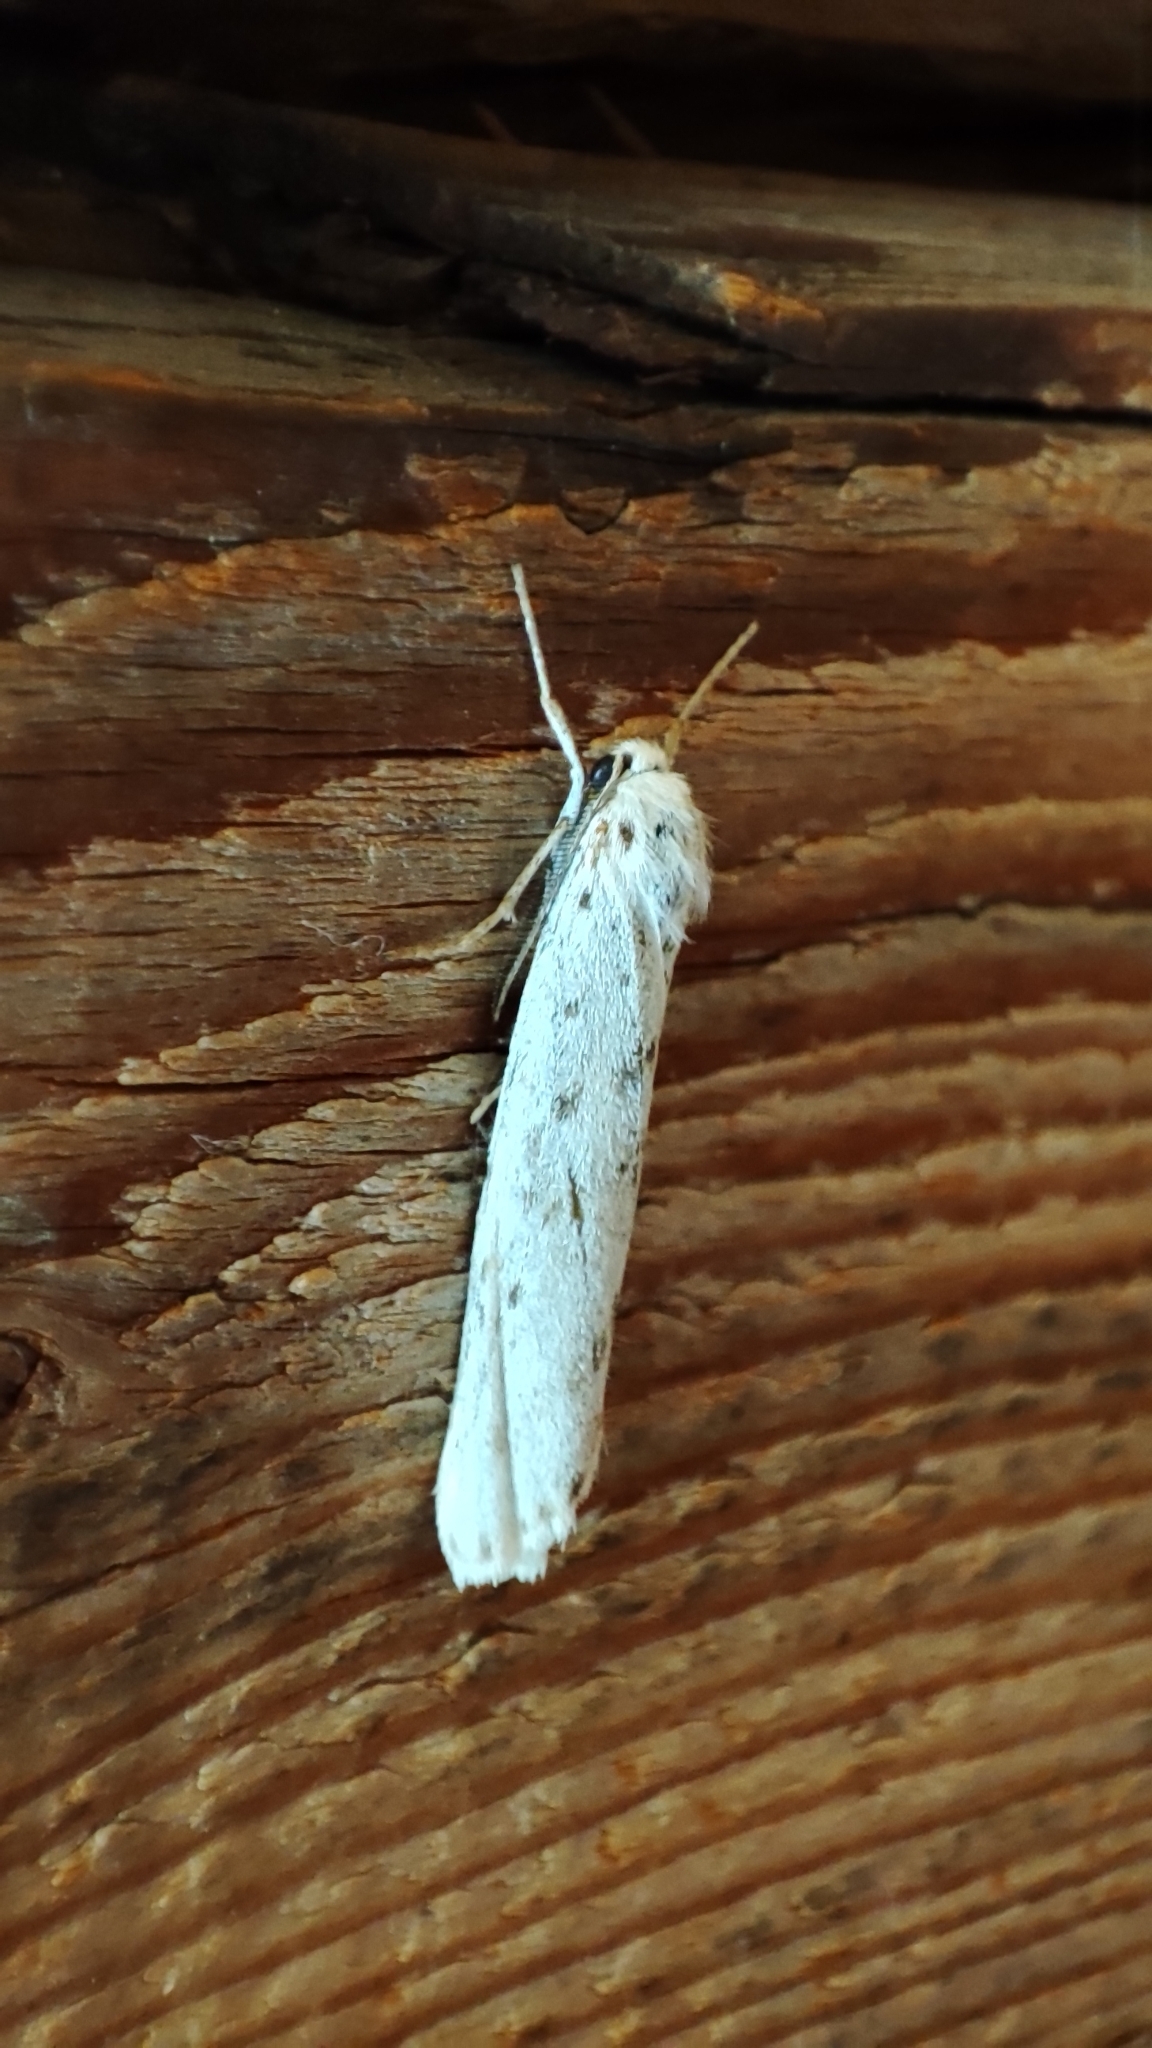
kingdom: Animalia
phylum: Arthropoda
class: Insecta
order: Lepidoptera
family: Erebidae
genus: Coscinia
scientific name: Coscinia cribraria
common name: Speckled footman
